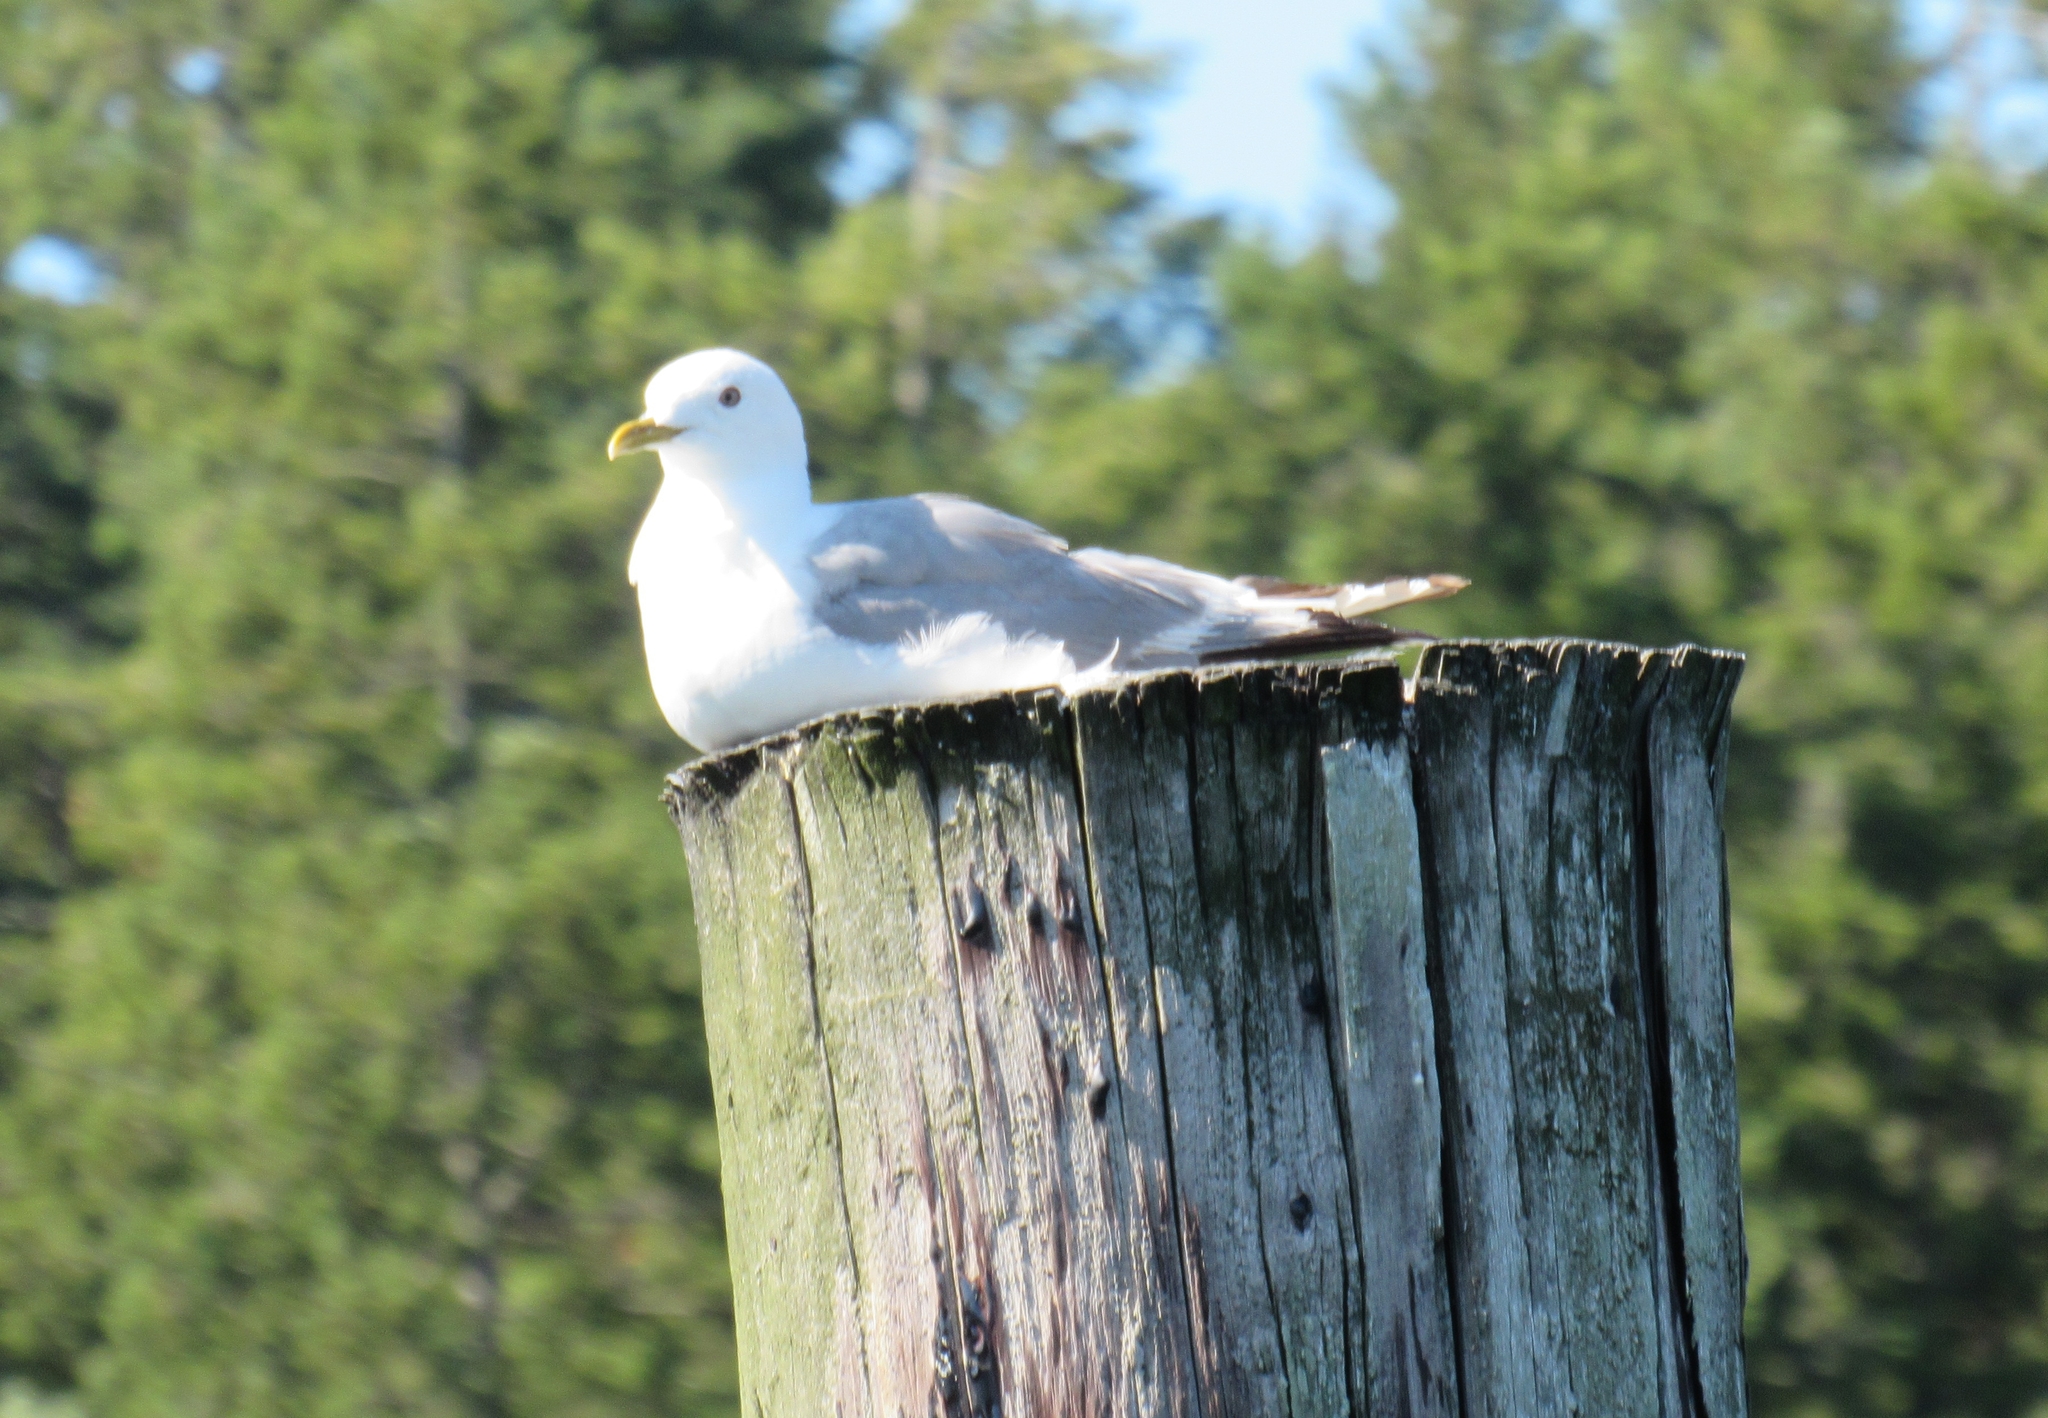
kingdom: Animalia
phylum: Chordata
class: Aves
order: Charadriiformes
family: Laridae
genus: Larus
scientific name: Larus brachyrhynchus
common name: Short-billed gull
